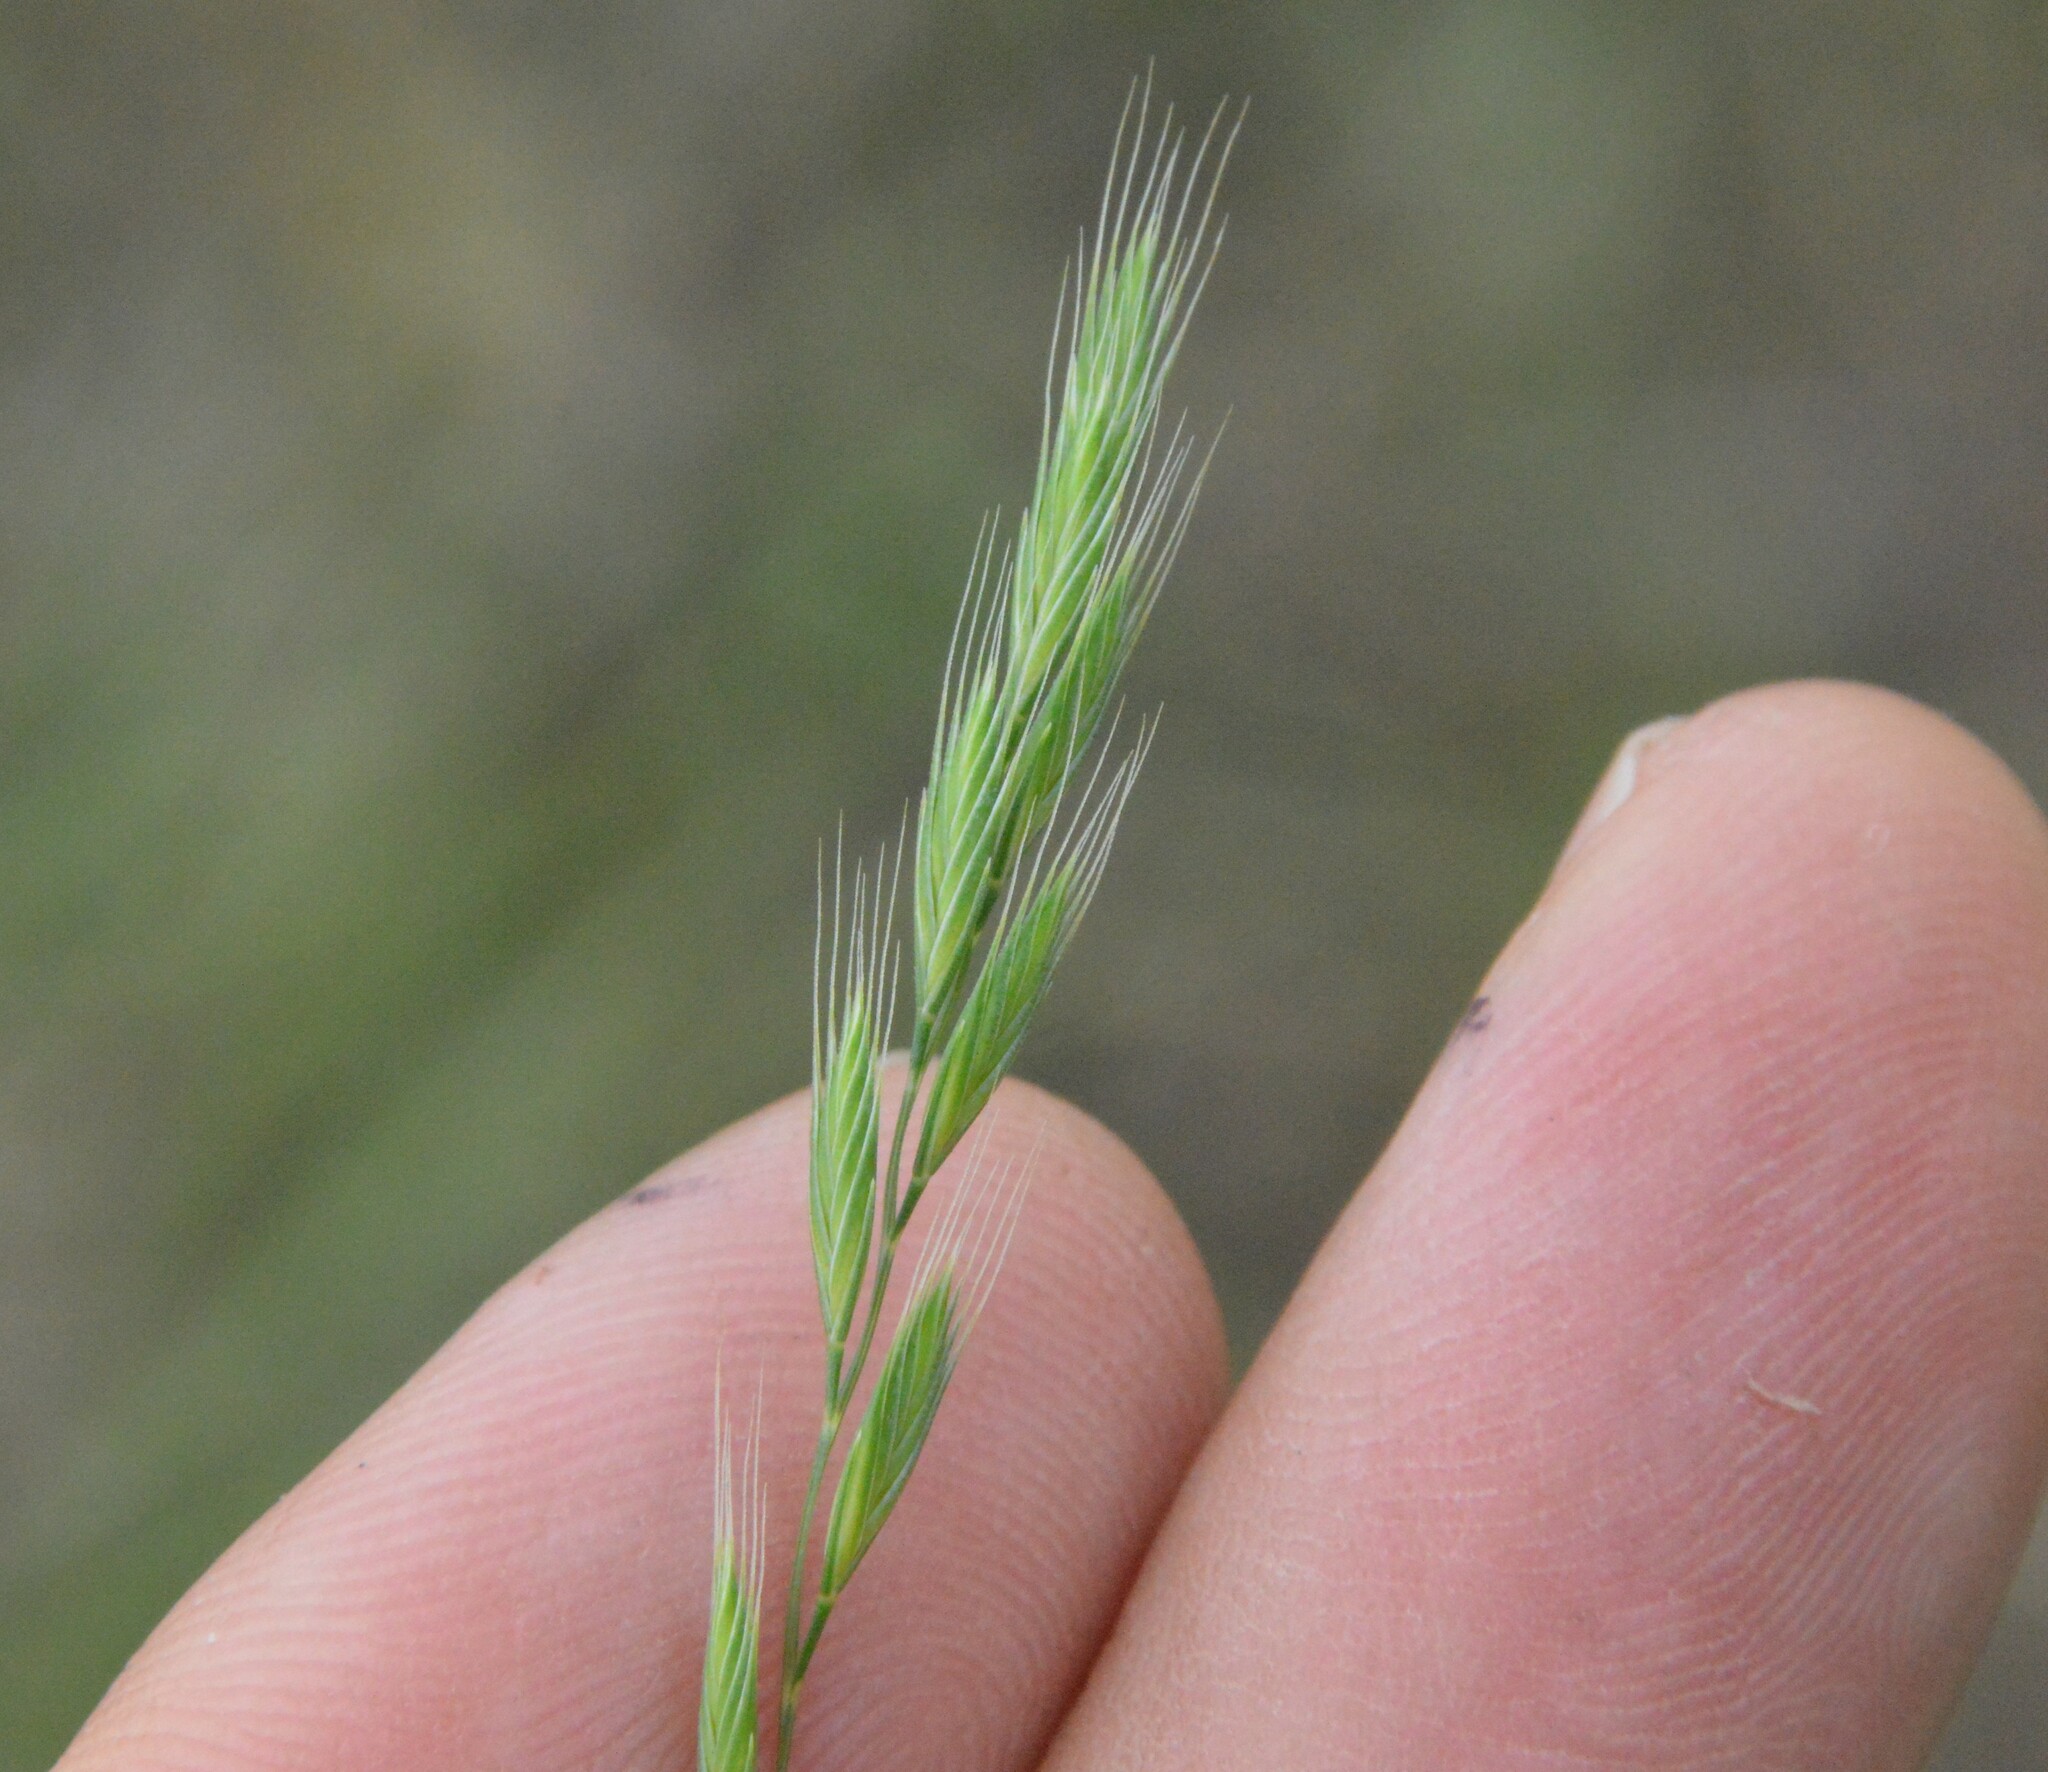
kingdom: Plantae
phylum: Tracheophyta
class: Liliopsida
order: Poales
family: Poaceae
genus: Festuca
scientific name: Festuca octoflora
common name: Sixweeks grass
